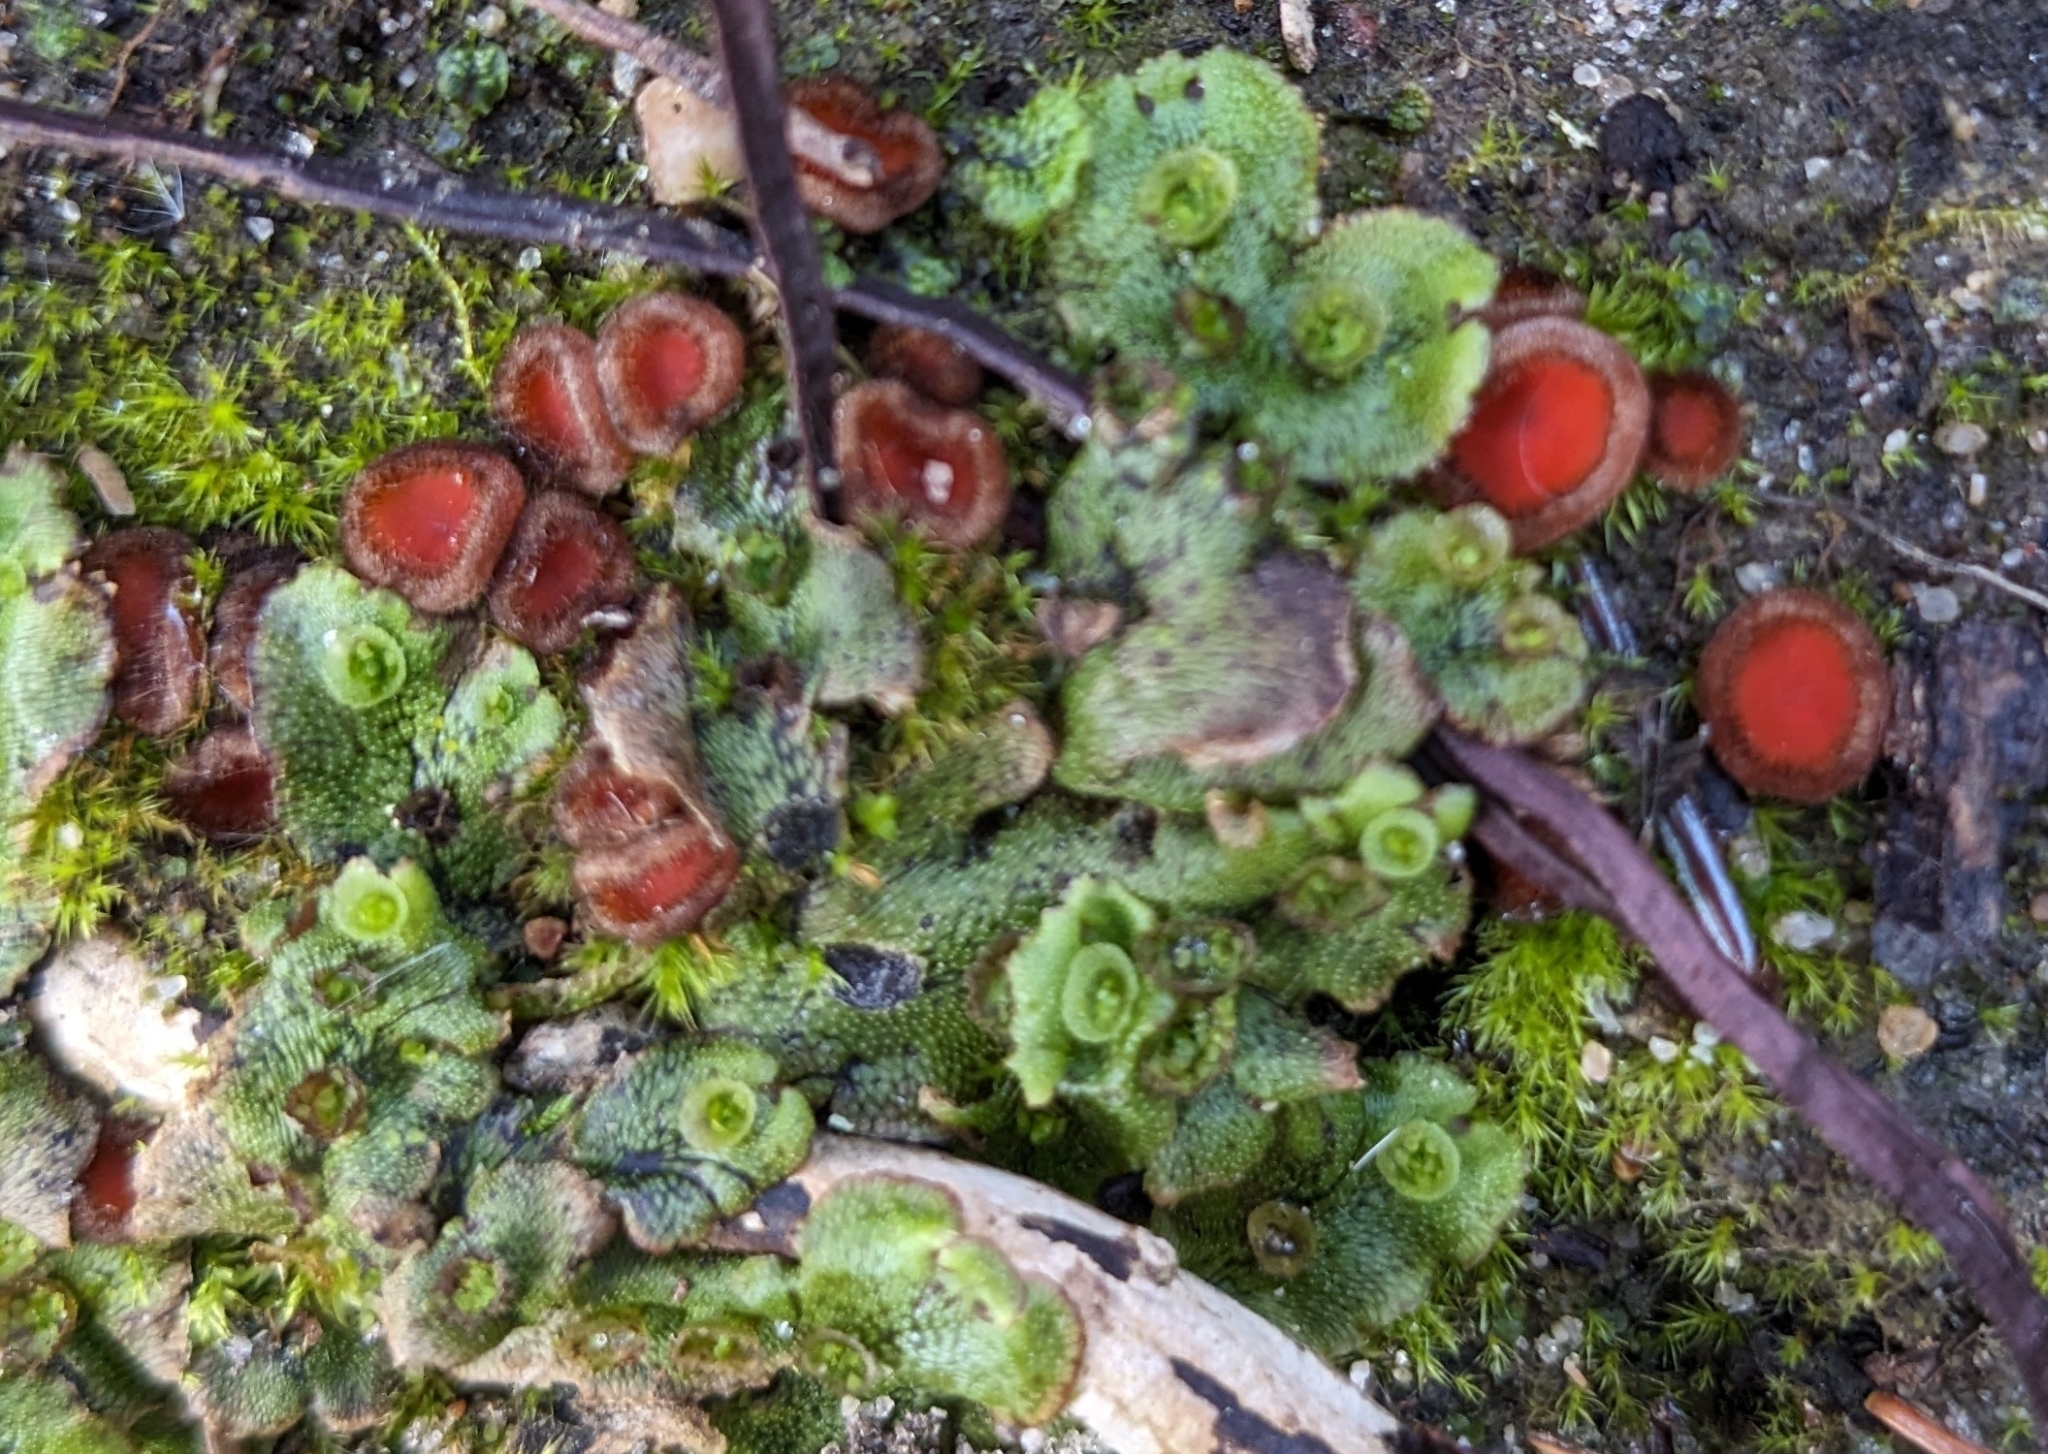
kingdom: Plantae
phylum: Marchantiophyta
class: Marchantiopsida
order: Marchantiales
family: Marchantiaceae
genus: Marchantia
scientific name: Marchantia polymorpha
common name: Common liverwort
